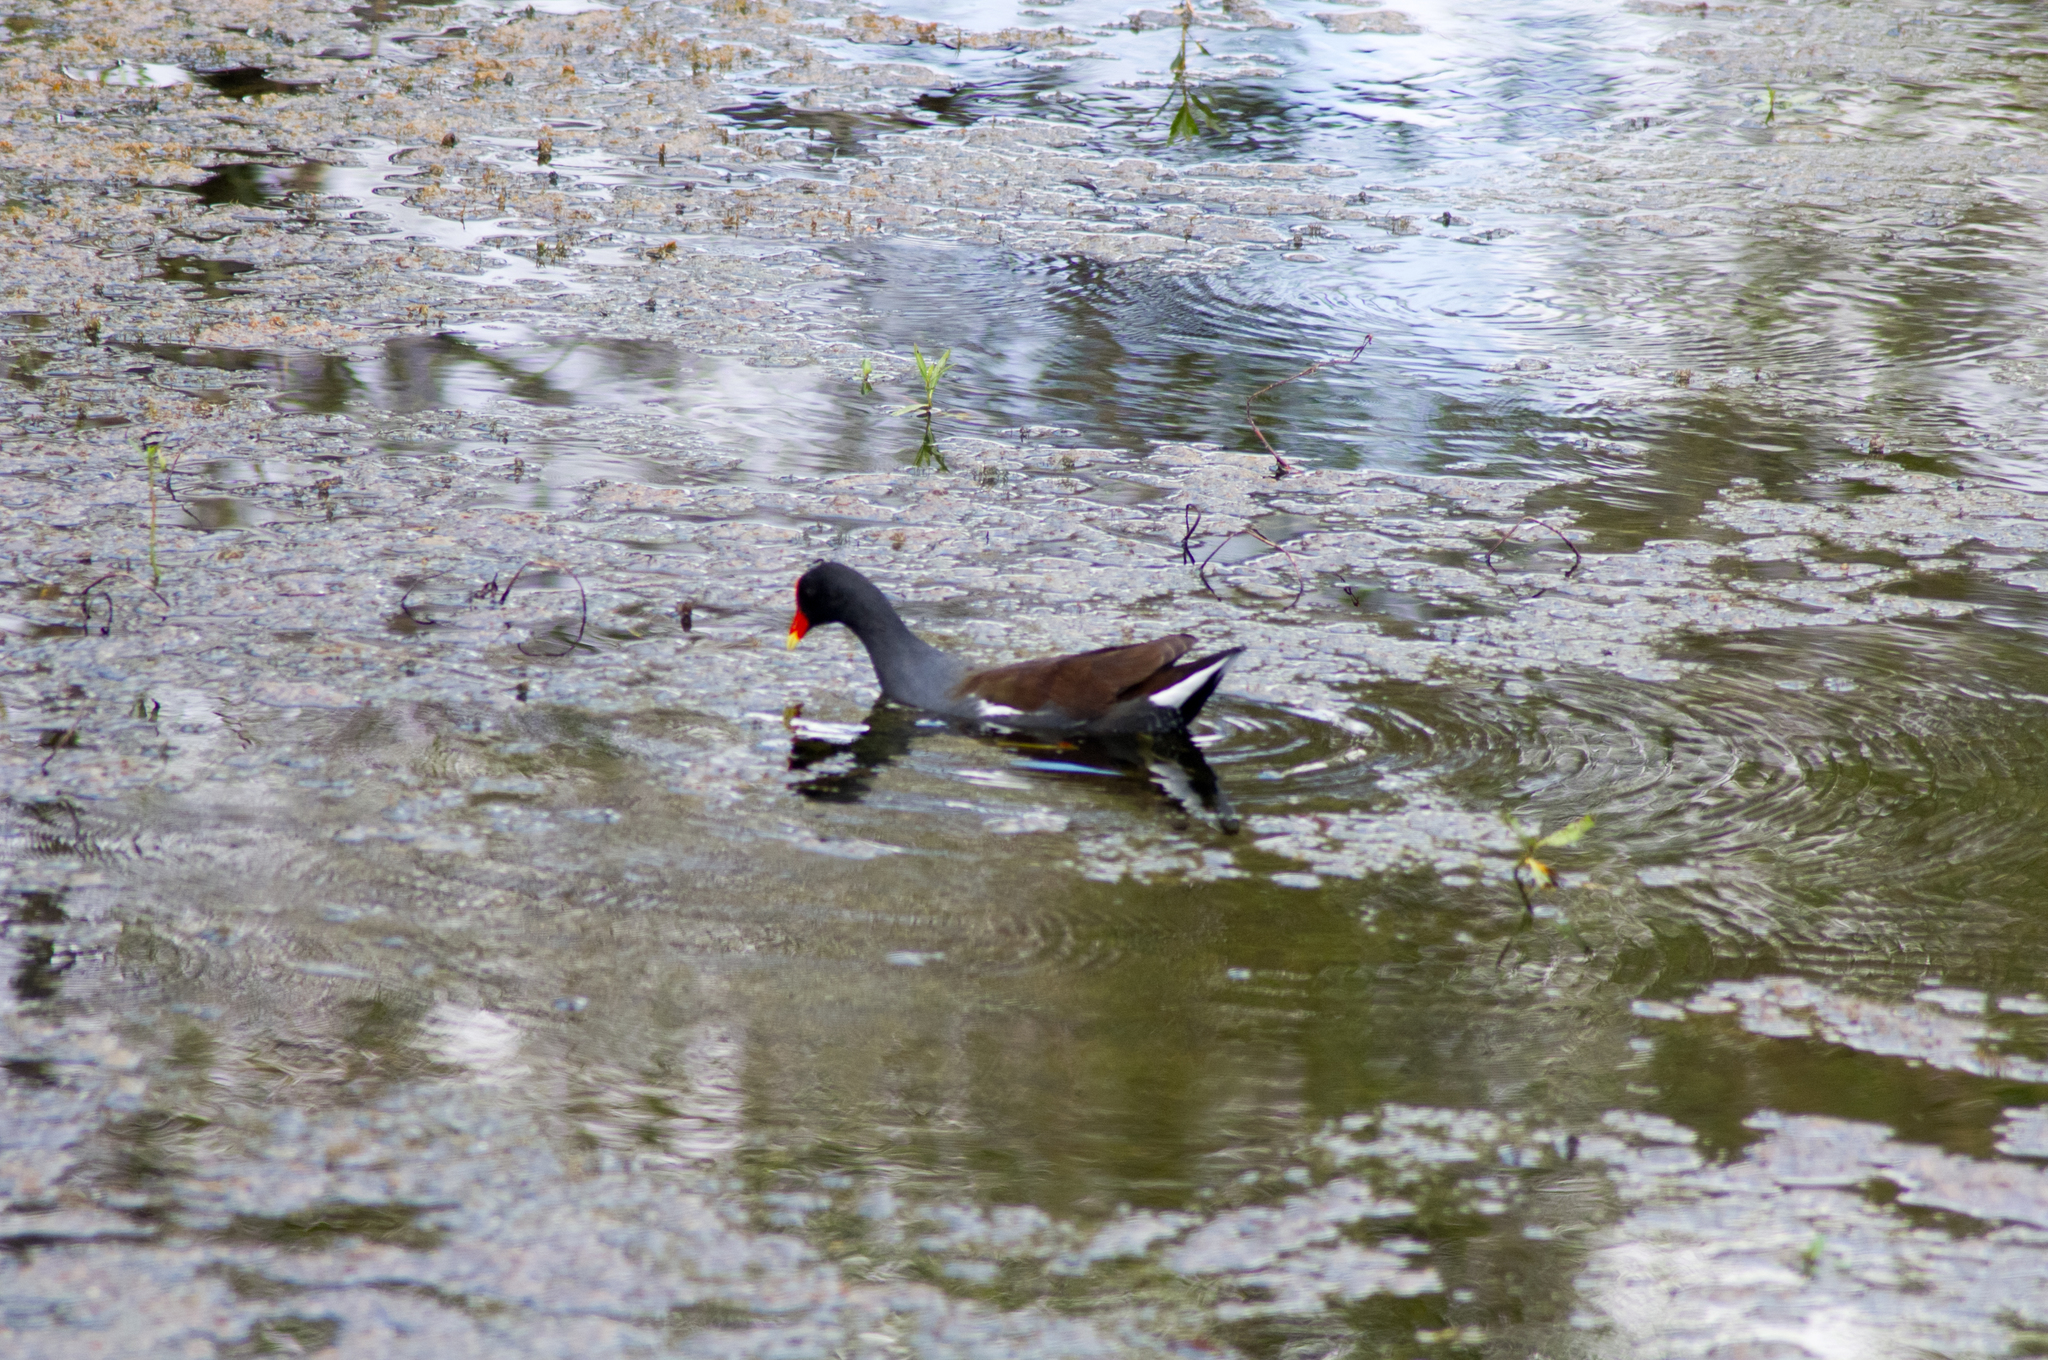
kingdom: Animalia
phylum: Chordata
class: Aves
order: Gruiformes
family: Rallidae
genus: Gallinula
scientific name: Gallinula chloropus
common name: Common moorhen
